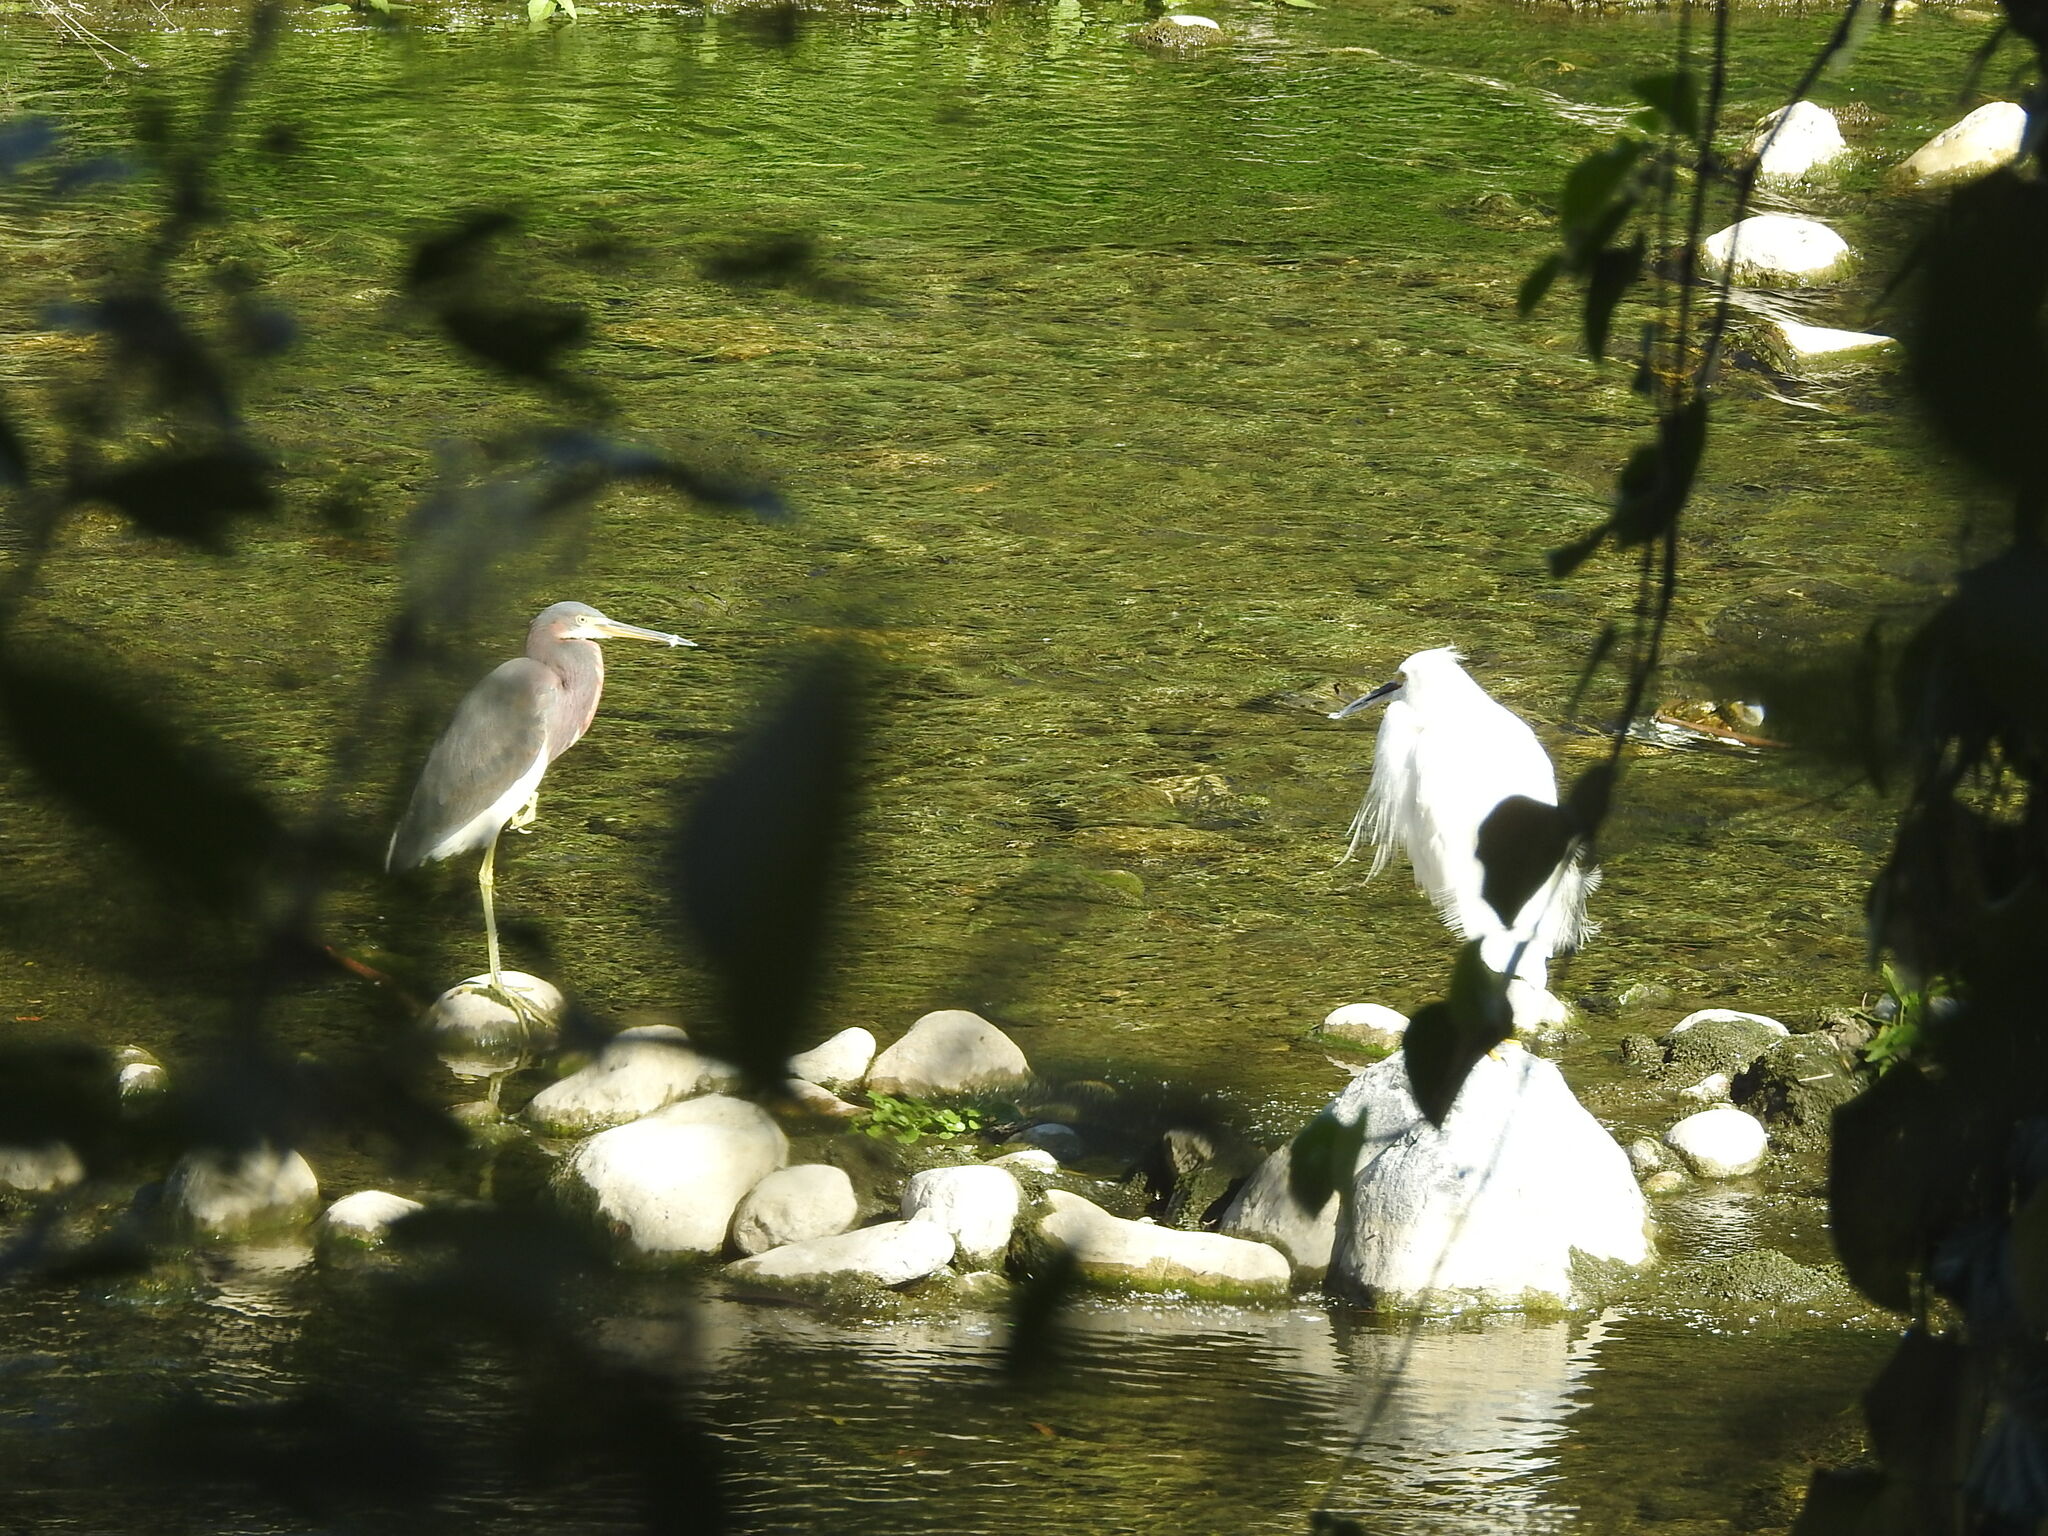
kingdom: Animalia
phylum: Chordata
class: Aves
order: Pelecaniformes
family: Ardeidae
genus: Egretta
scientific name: Egretta tricolor
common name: Tricolored heron
